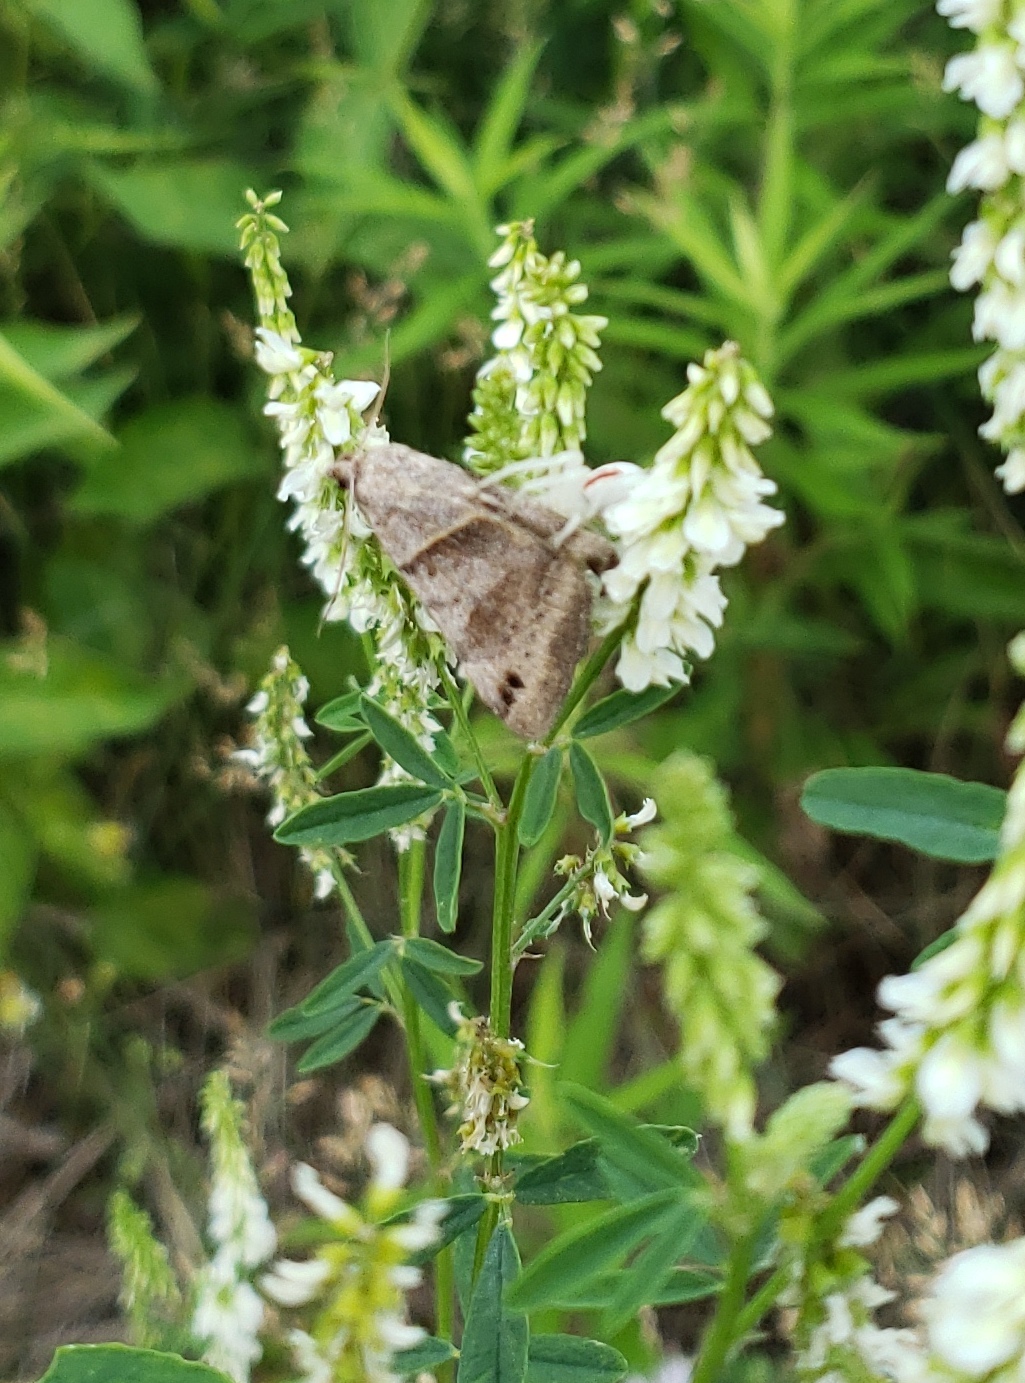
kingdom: Animalia
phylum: Arthropoda
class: Arachnida
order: Araneae
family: Thomisidae
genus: Misumena
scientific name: Misumena vatia
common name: Goldenrod crab spider
